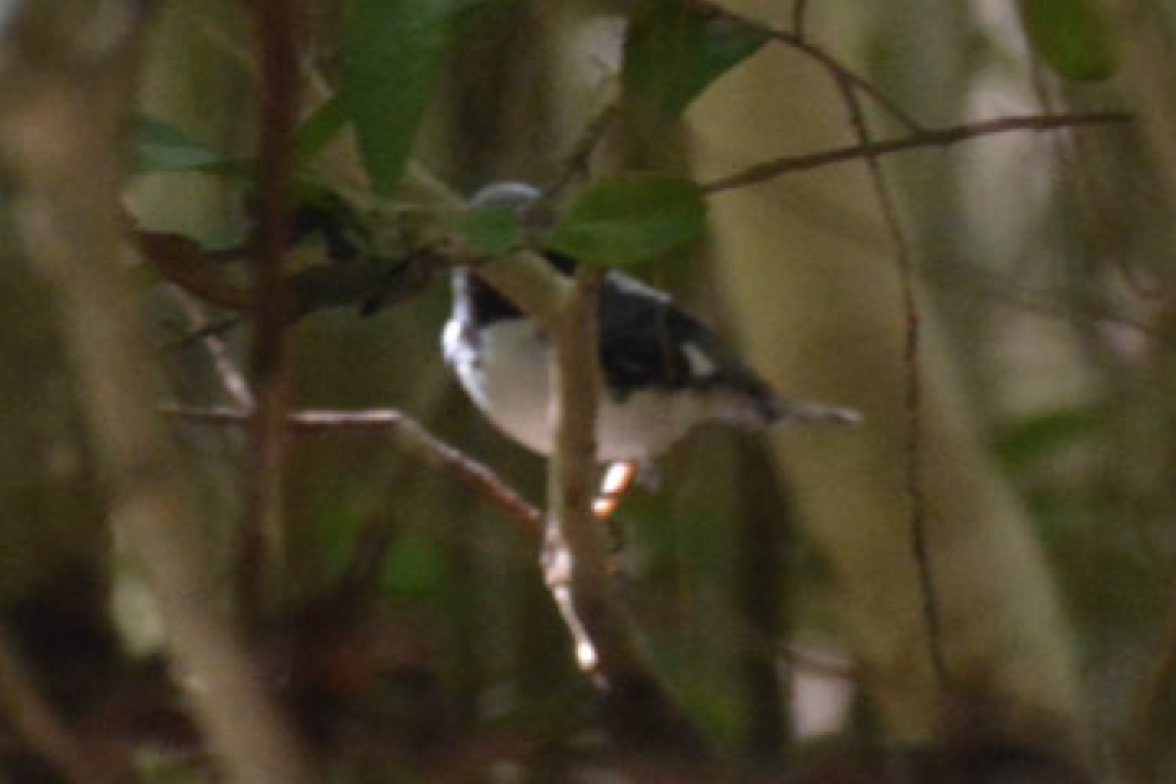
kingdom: Animalia
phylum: Chordata
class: Aves
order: Passeriformes
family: Parulidae
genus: Setophaga
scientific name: Setophaga caerulescens
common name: Black-throated blue warbler
